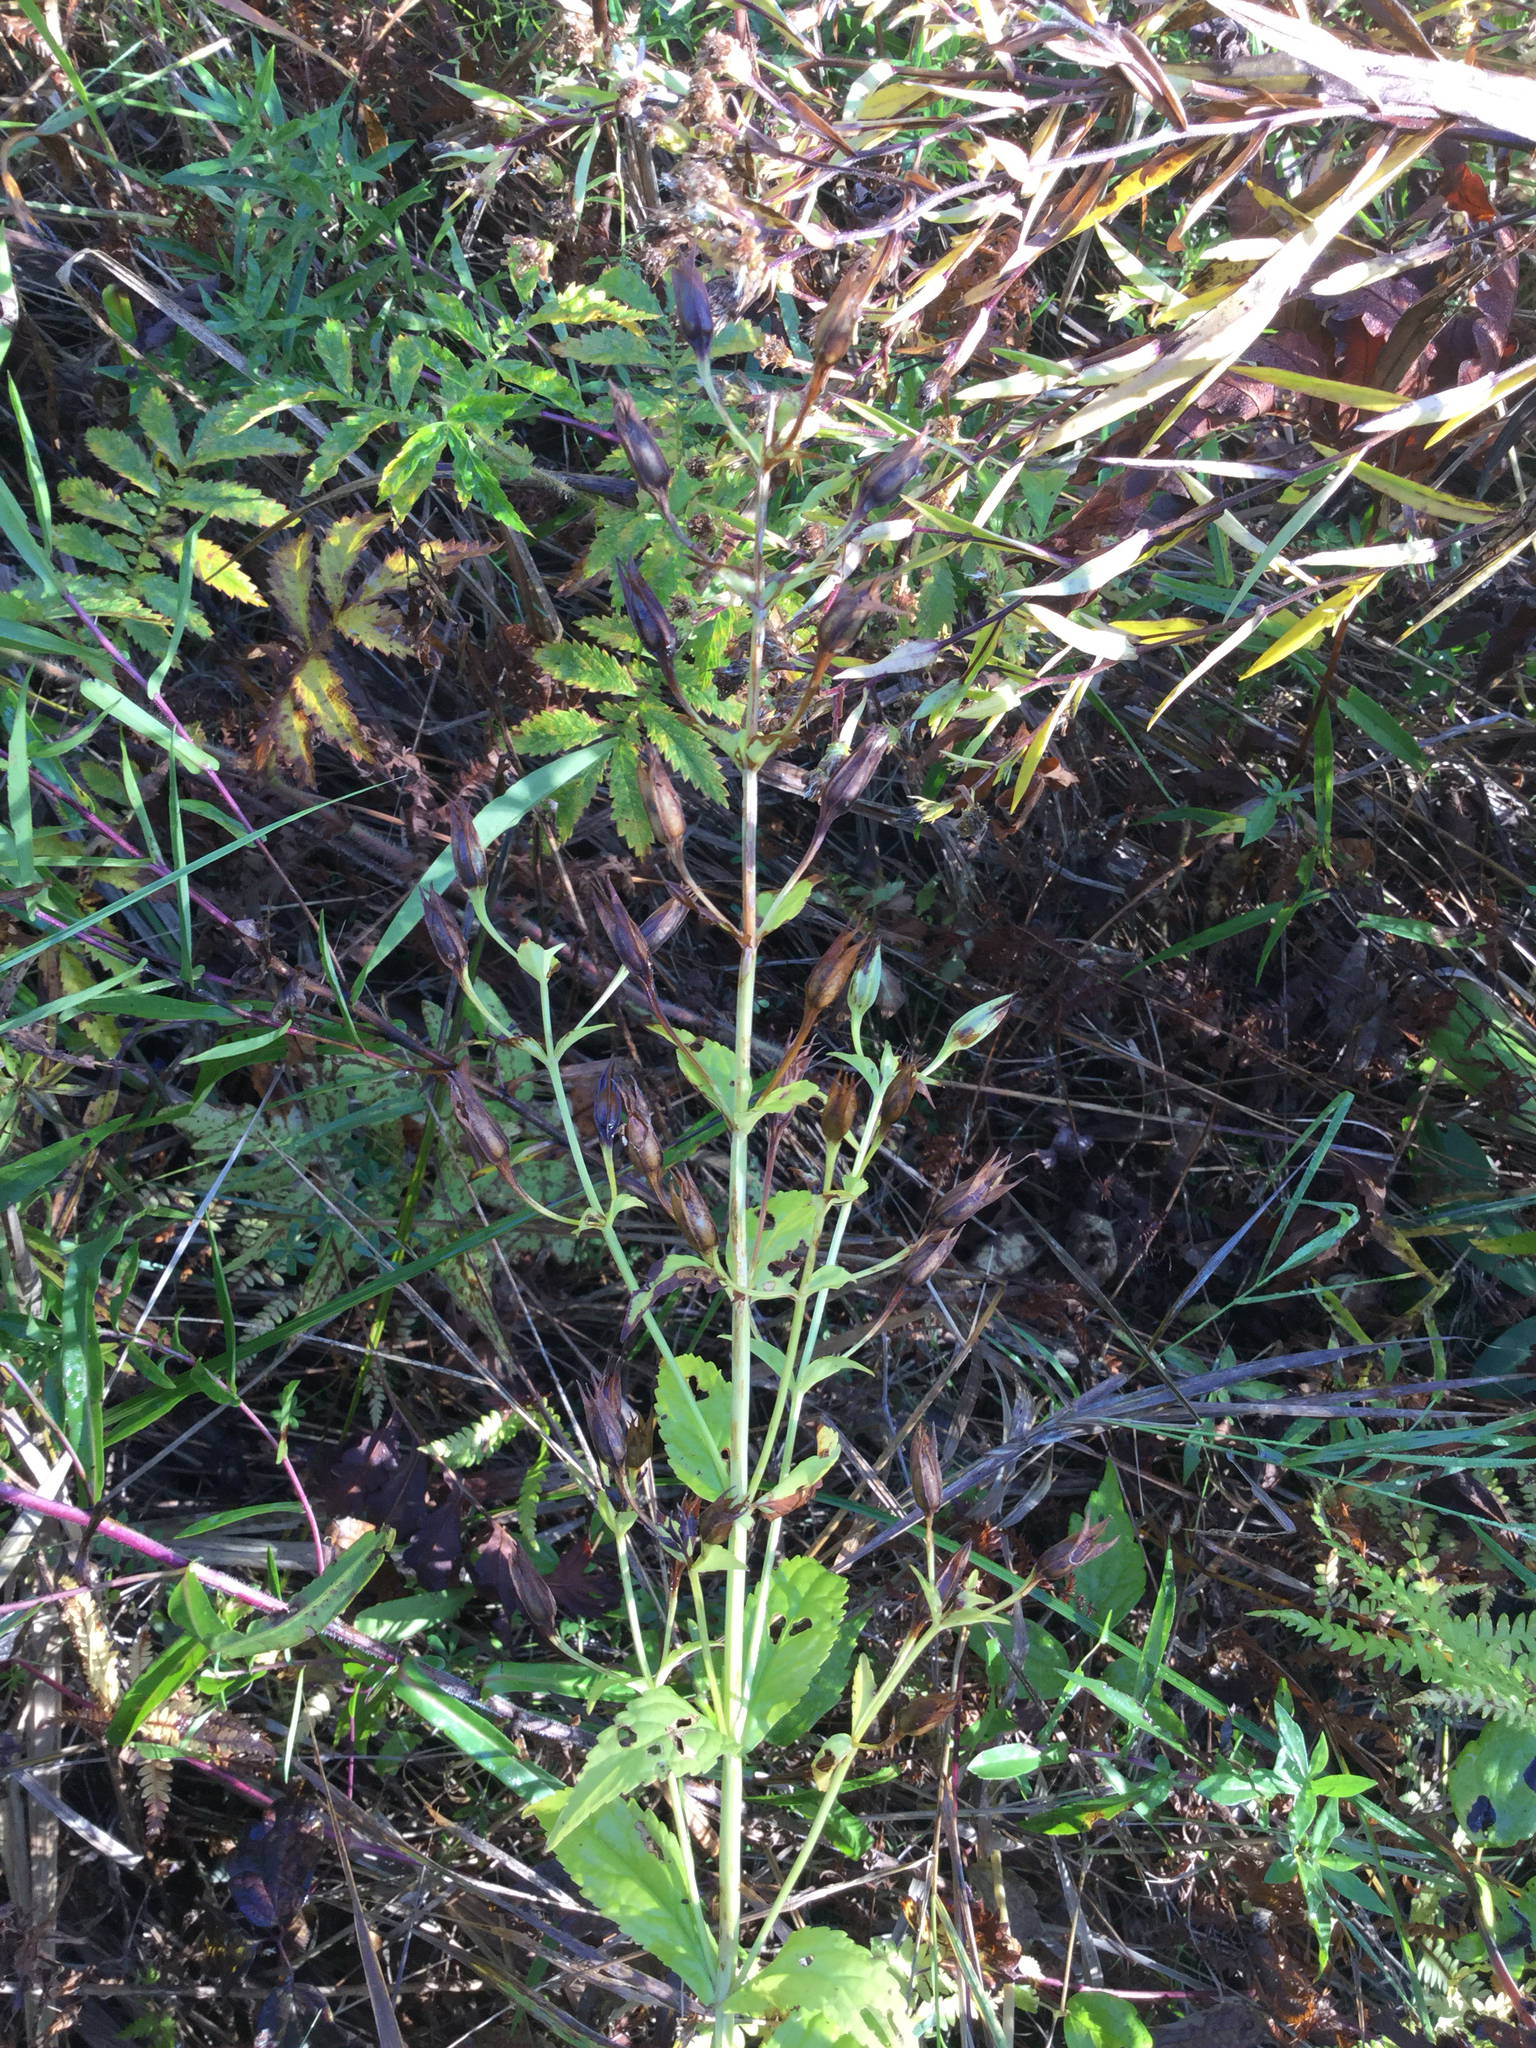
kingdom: Plantae
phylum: Tracheophyta
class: Magnoliopsida
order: Lamiales
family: Phrymaceae
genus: Mimulus
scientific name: Mimulus ringens
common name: Allegheny monkeyflower
